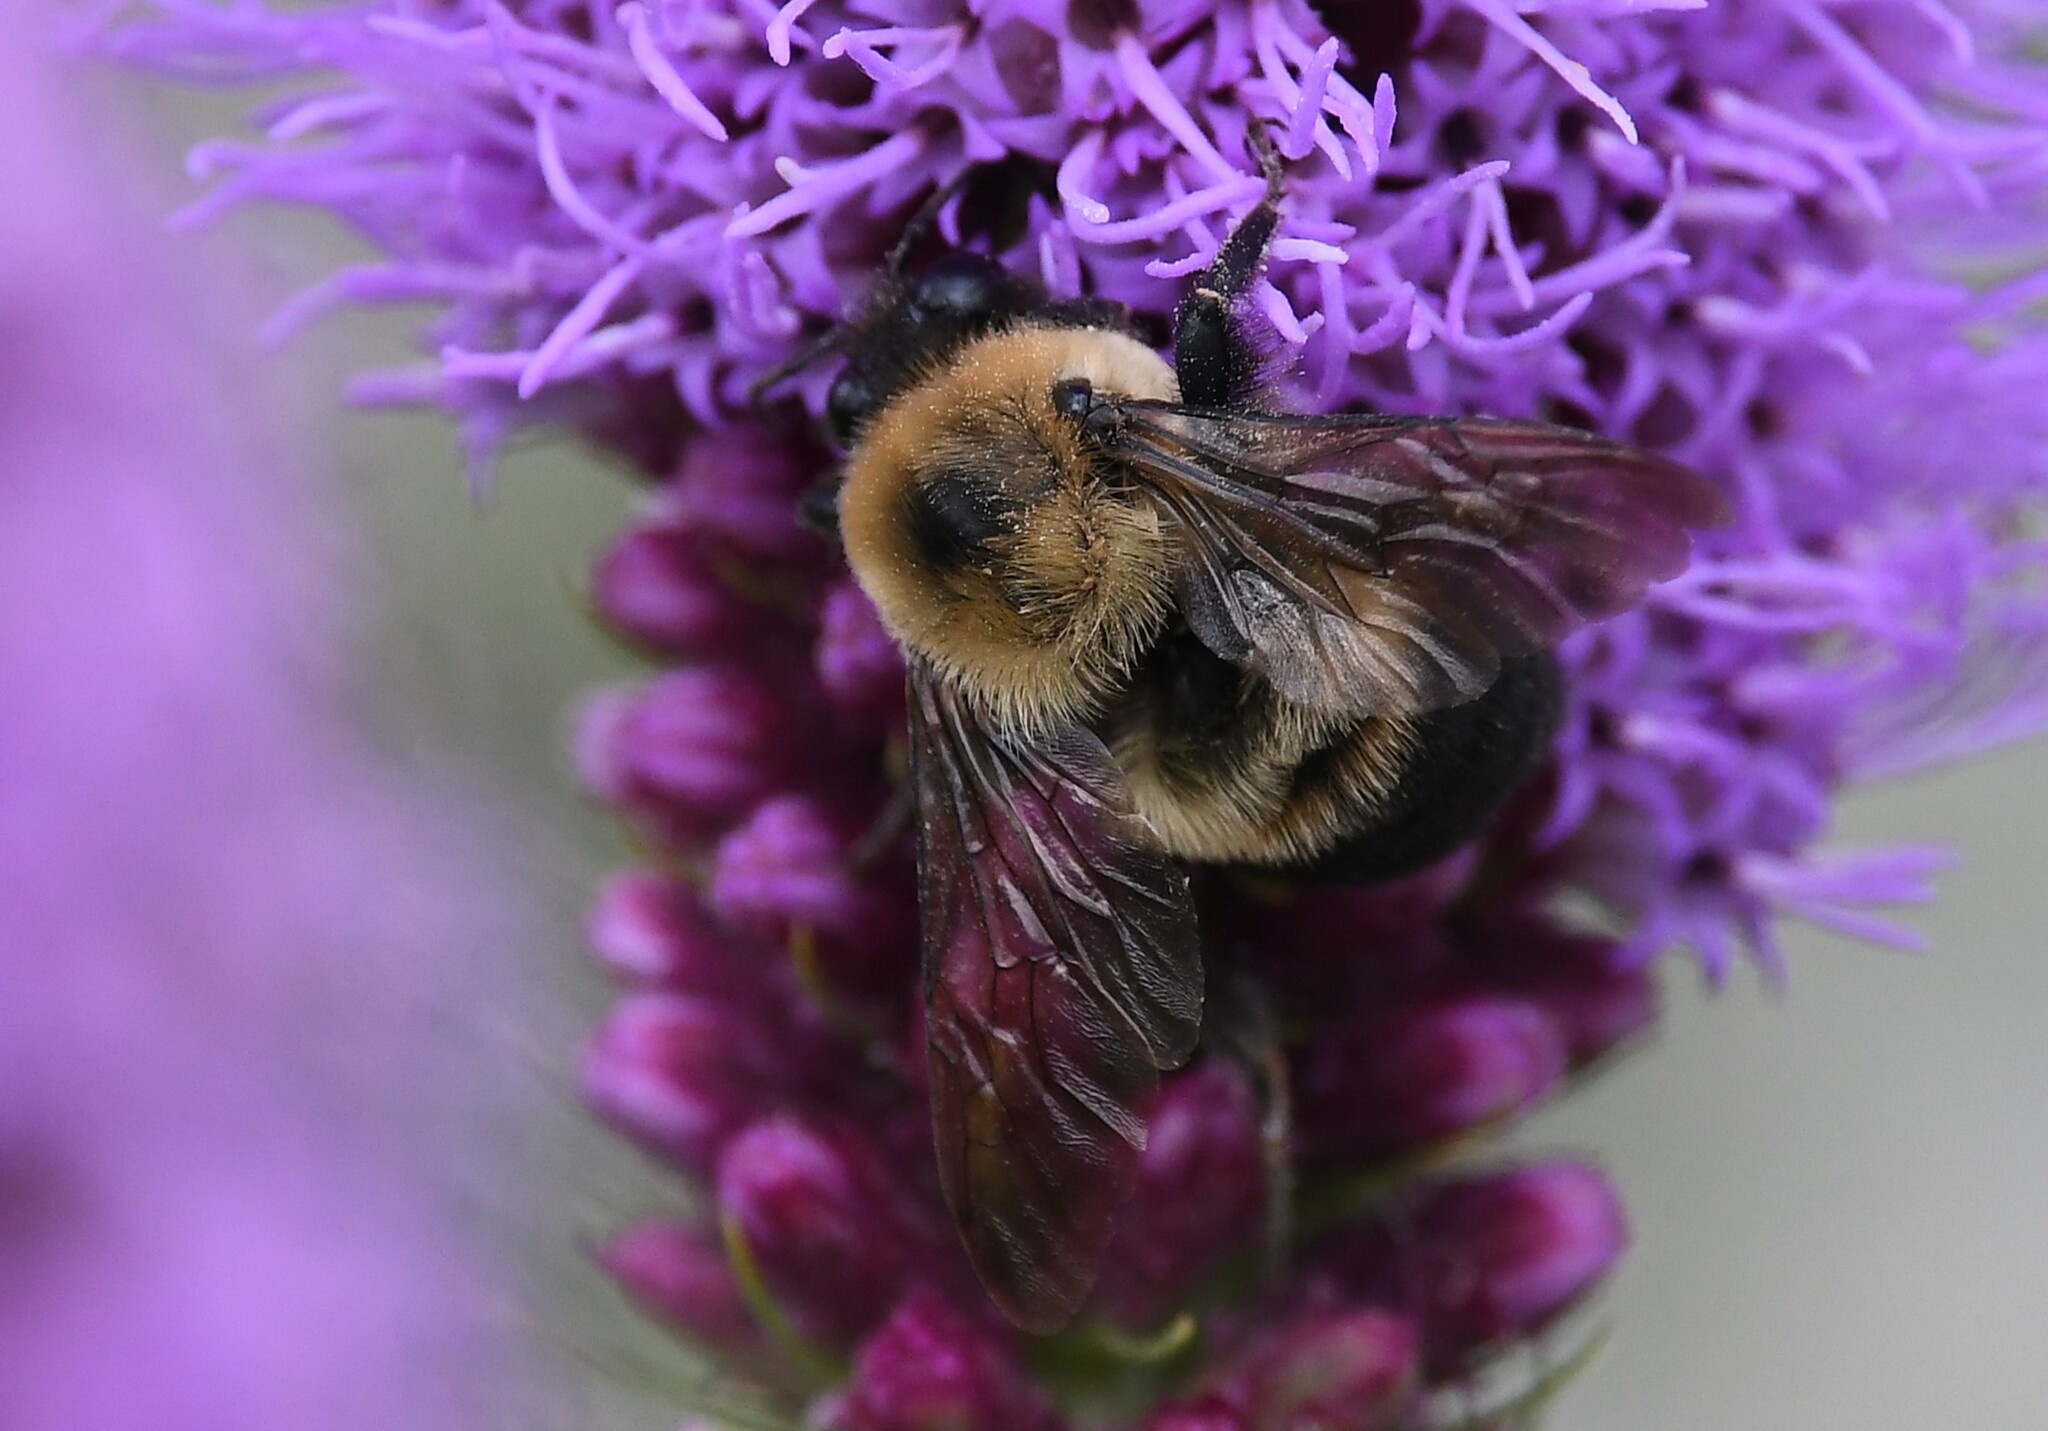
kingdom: Animalia
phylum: Arthropoda
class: Insecta
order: Hymenoptera
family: Apidae
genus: Bombus
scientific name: Bombus griseocollis
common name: Brown-belted bumble bee
